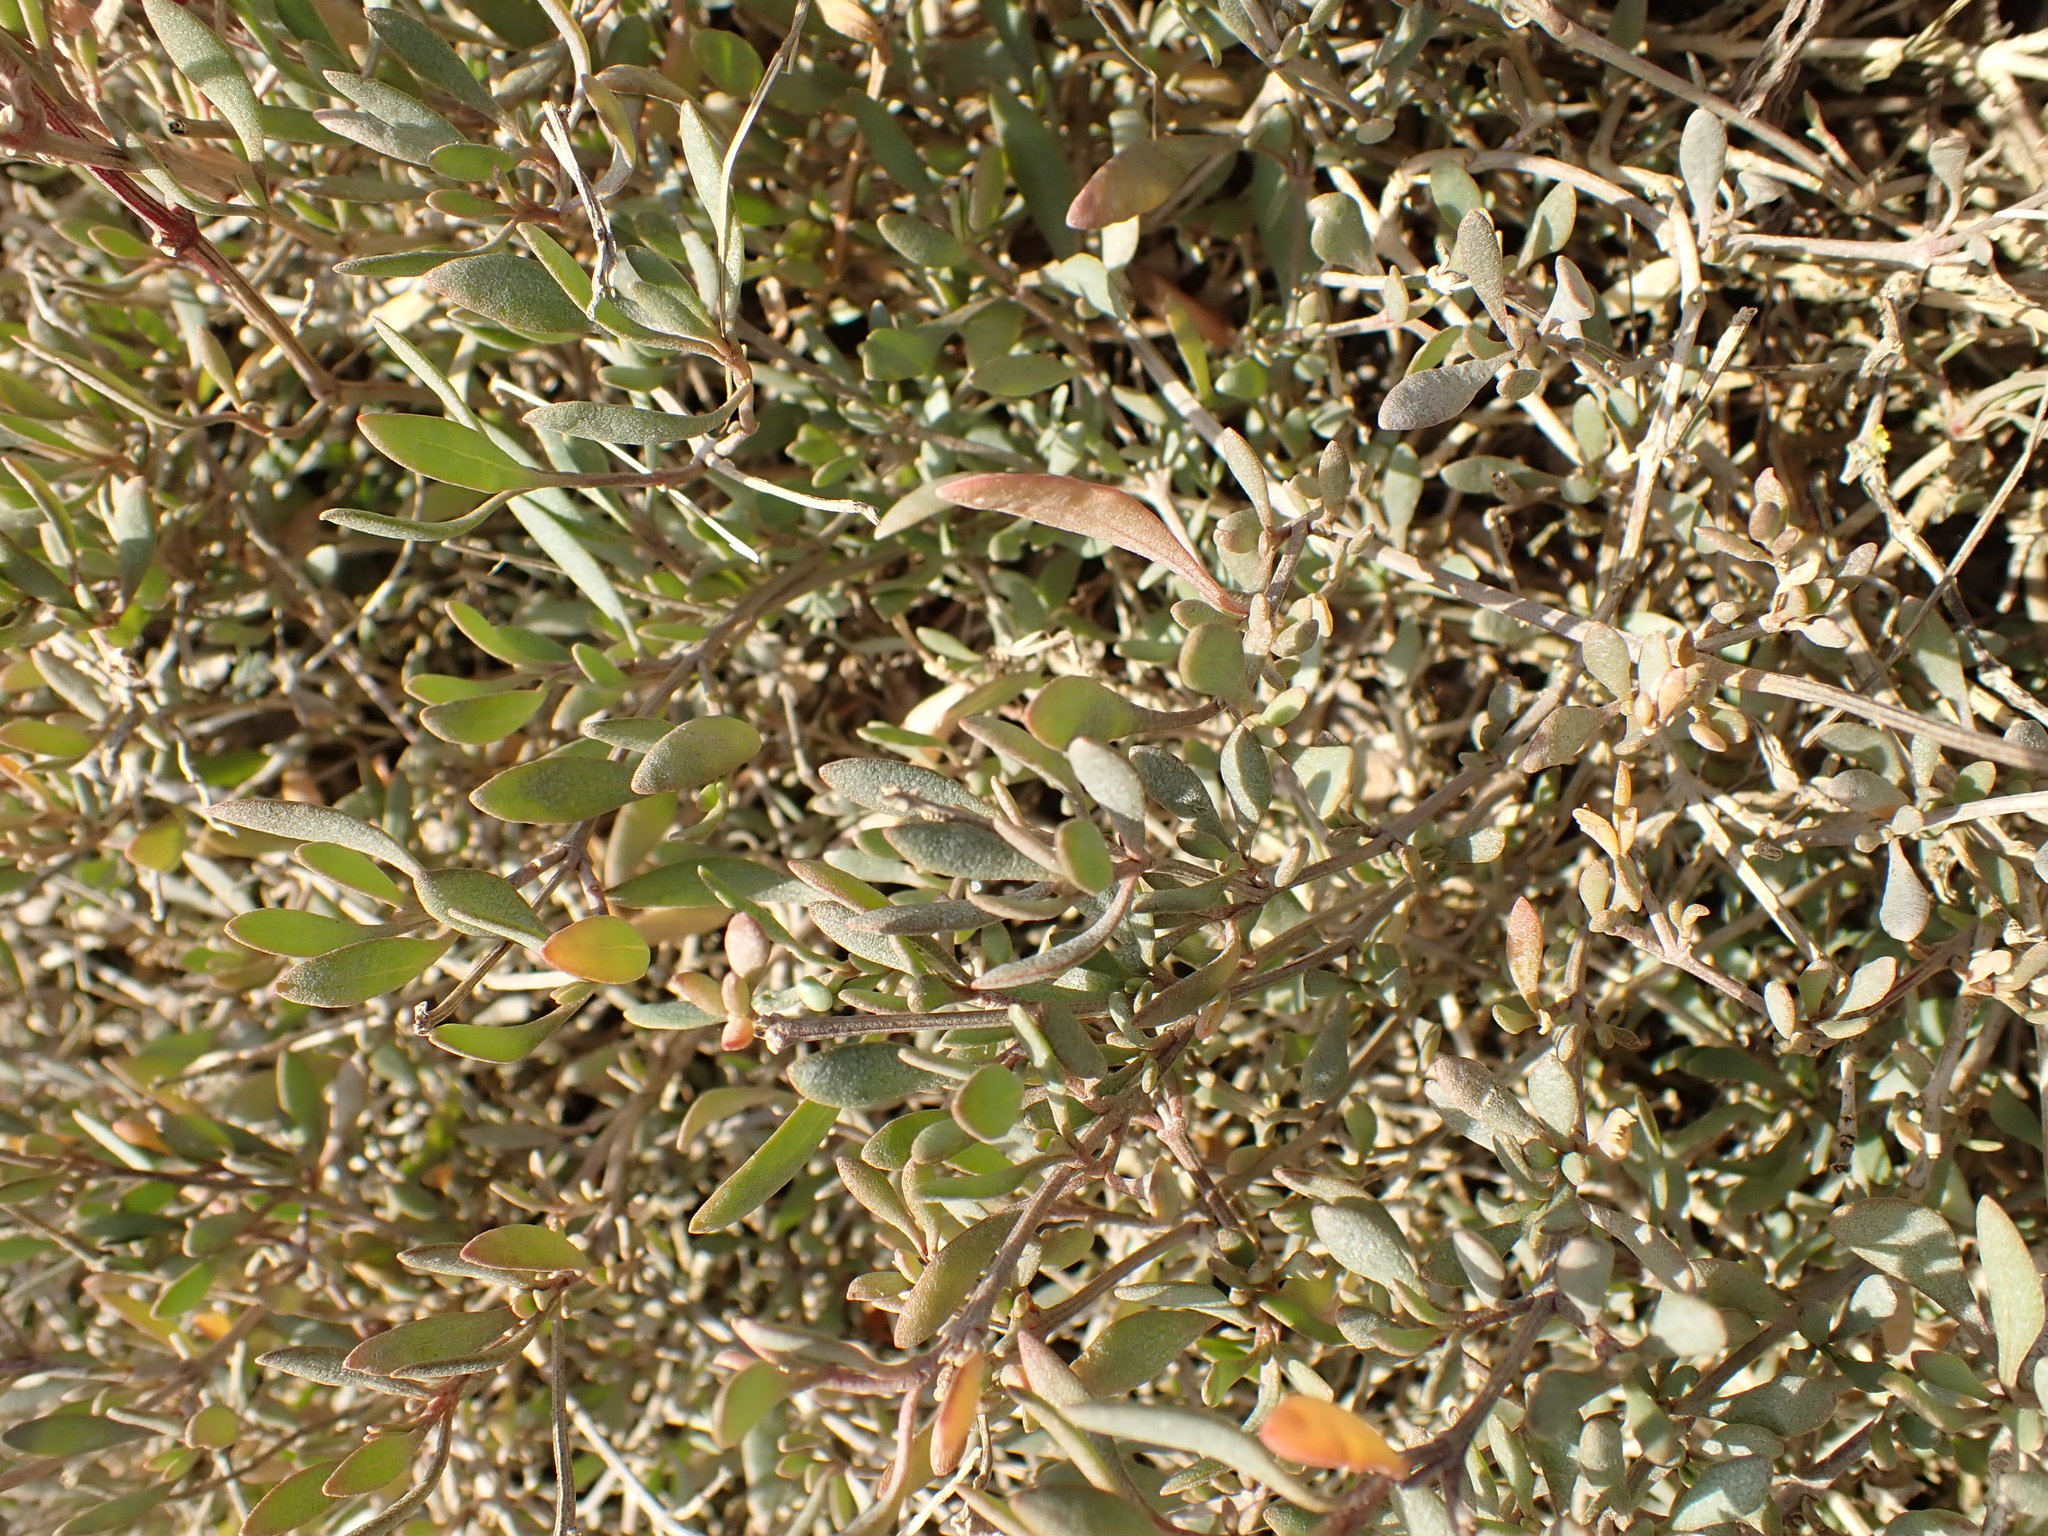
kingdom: Plantae
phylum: Tracheophyta
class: Magnoliopsida
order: Caryophyllales
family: Amaranthaceae
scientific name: Amaranthaceae
